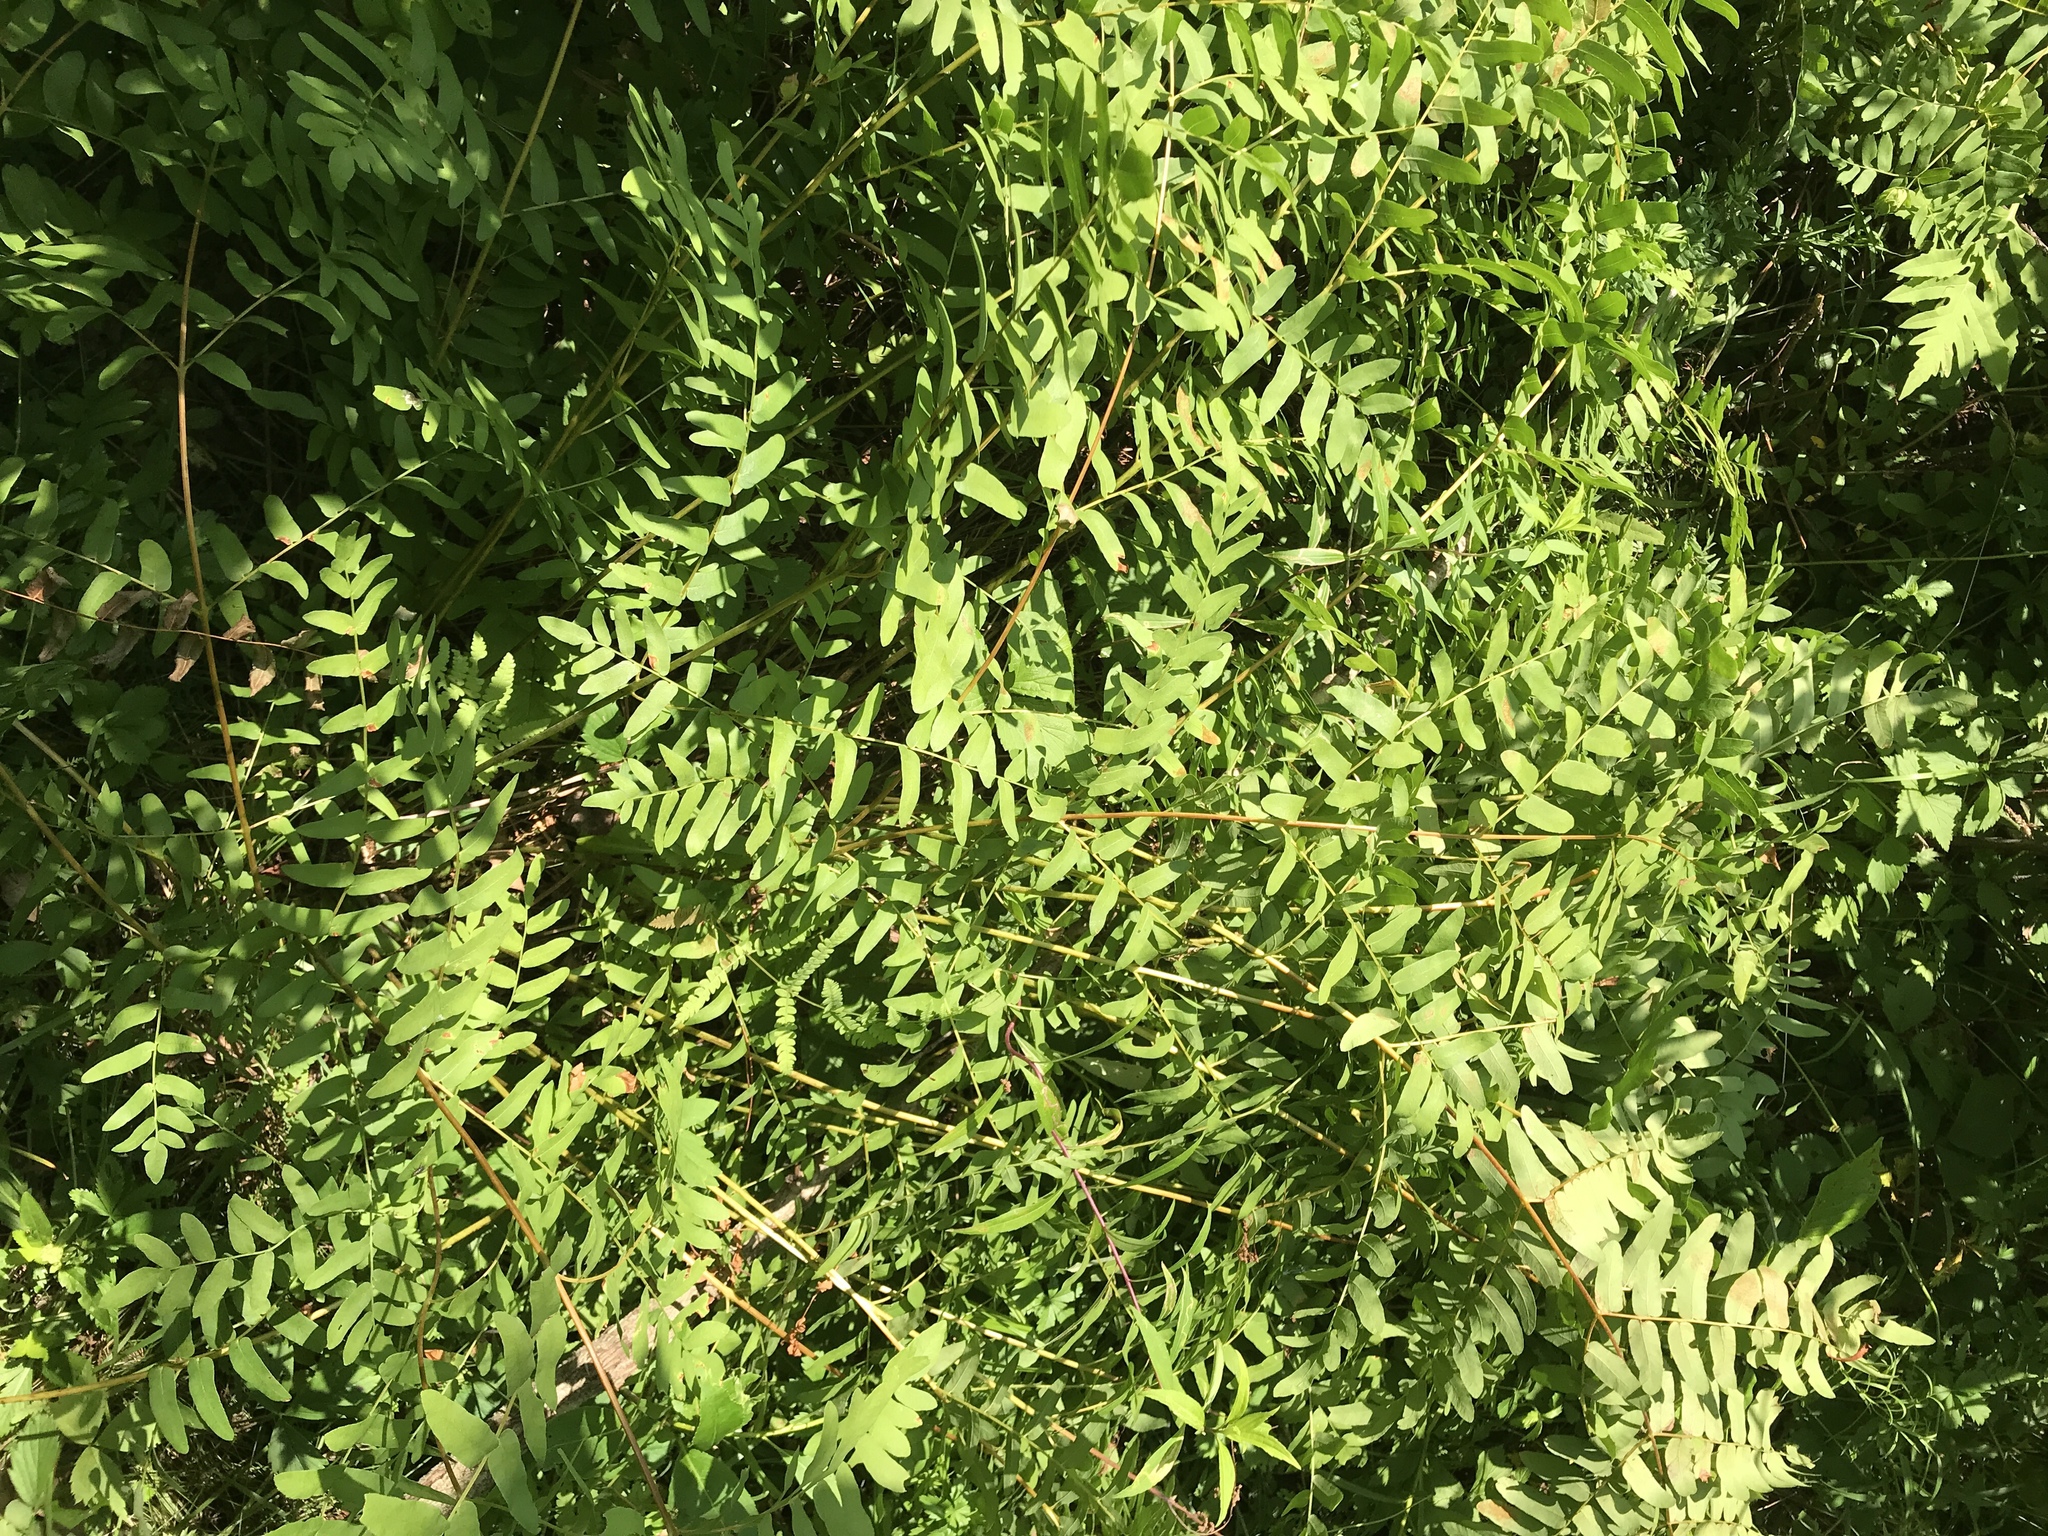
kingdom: Plantae
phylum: Tracheophyta
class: Polypodiopsida
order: Osmundales
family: Osmundaceae
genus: Osmunda
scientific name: Osmunda spectabilis
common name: American royal fern
